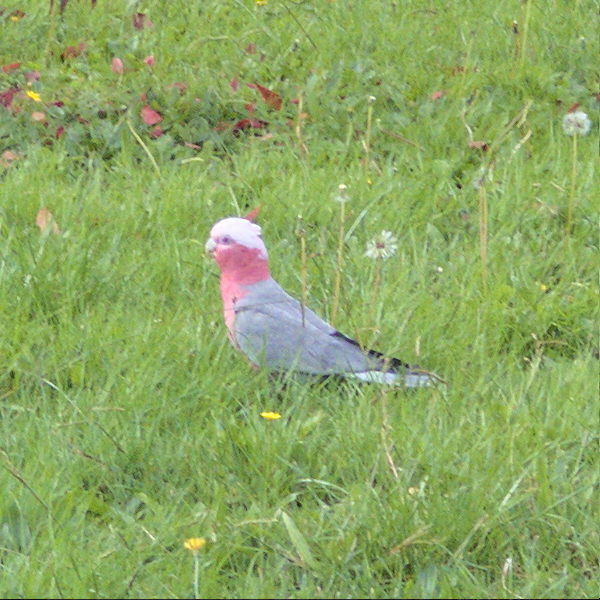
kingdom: Animalia
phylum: Chordata
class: Aves
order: Psittaciformes
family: Psittacidae
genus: Eolophus
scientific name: Eolophus roseicapilla
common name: Galah
